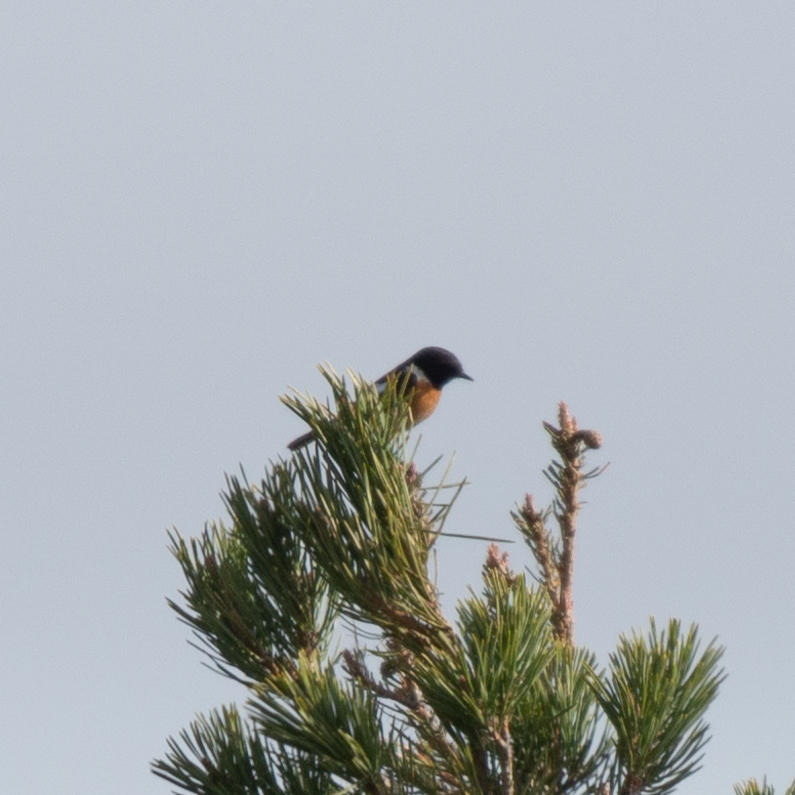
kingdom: Animalia
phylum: Chordata
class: Aves
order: Passeriformes
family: Muscicapidae
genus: Saxicola
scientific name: Saxicola rubicola
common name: European stonechat
